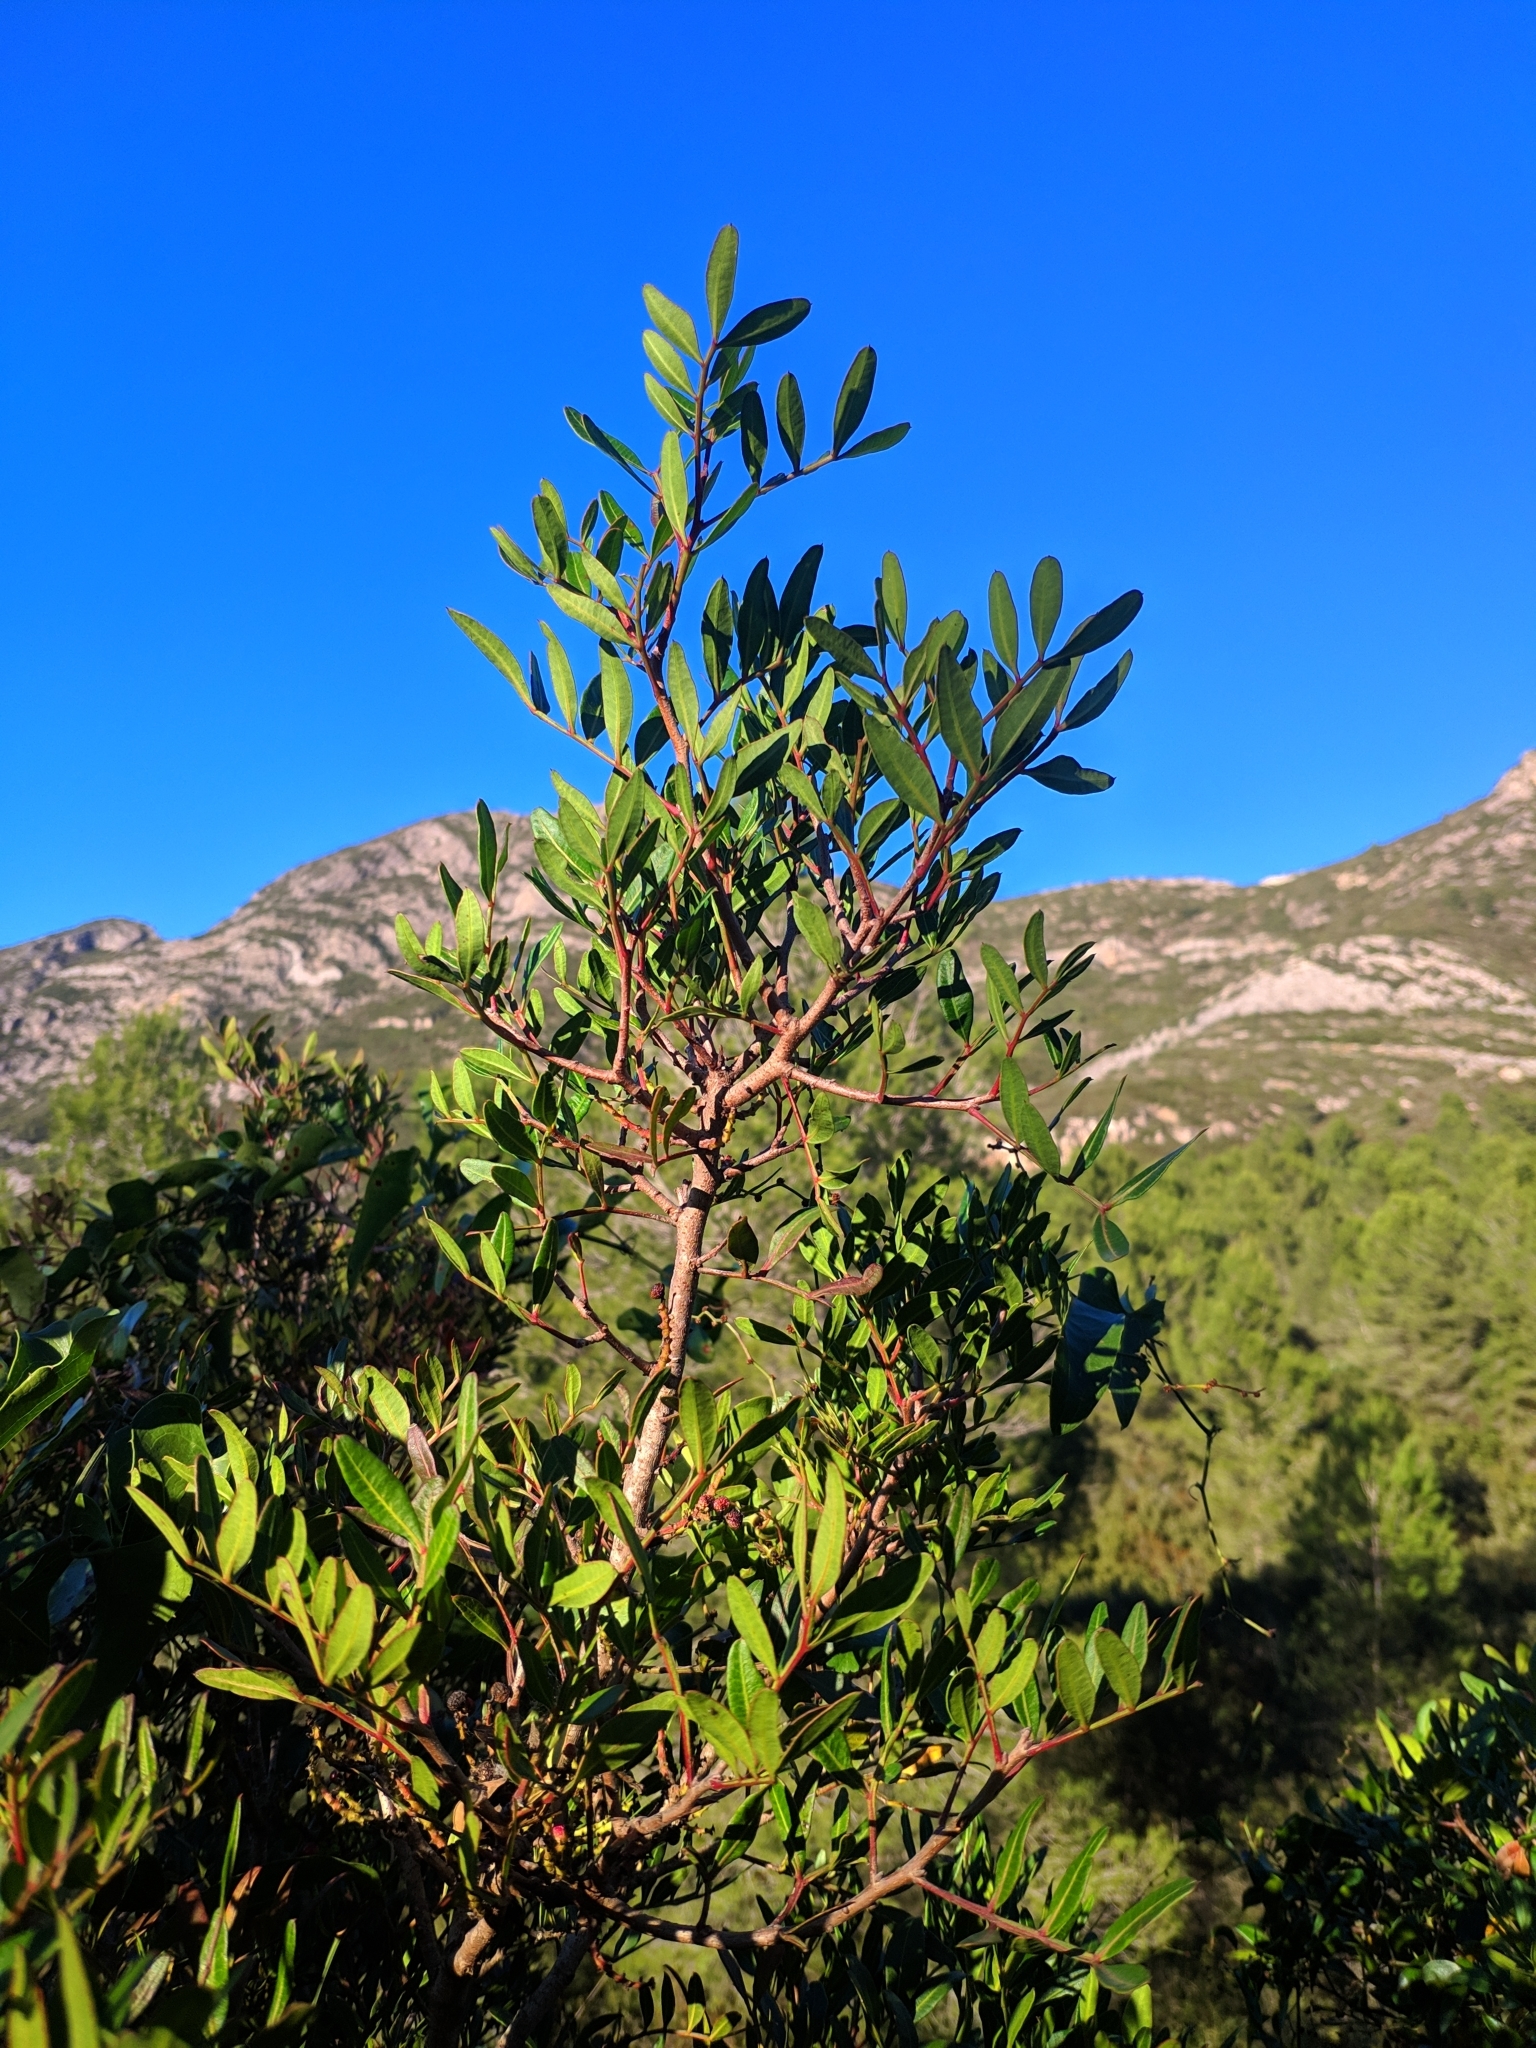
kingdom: Plantae
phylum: Tracheophyta
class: Magnoliopsida
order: Sapindales
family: Anacardiaceae
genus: Pistacia
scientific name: Pistacia lentiscus
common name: Lentisk
